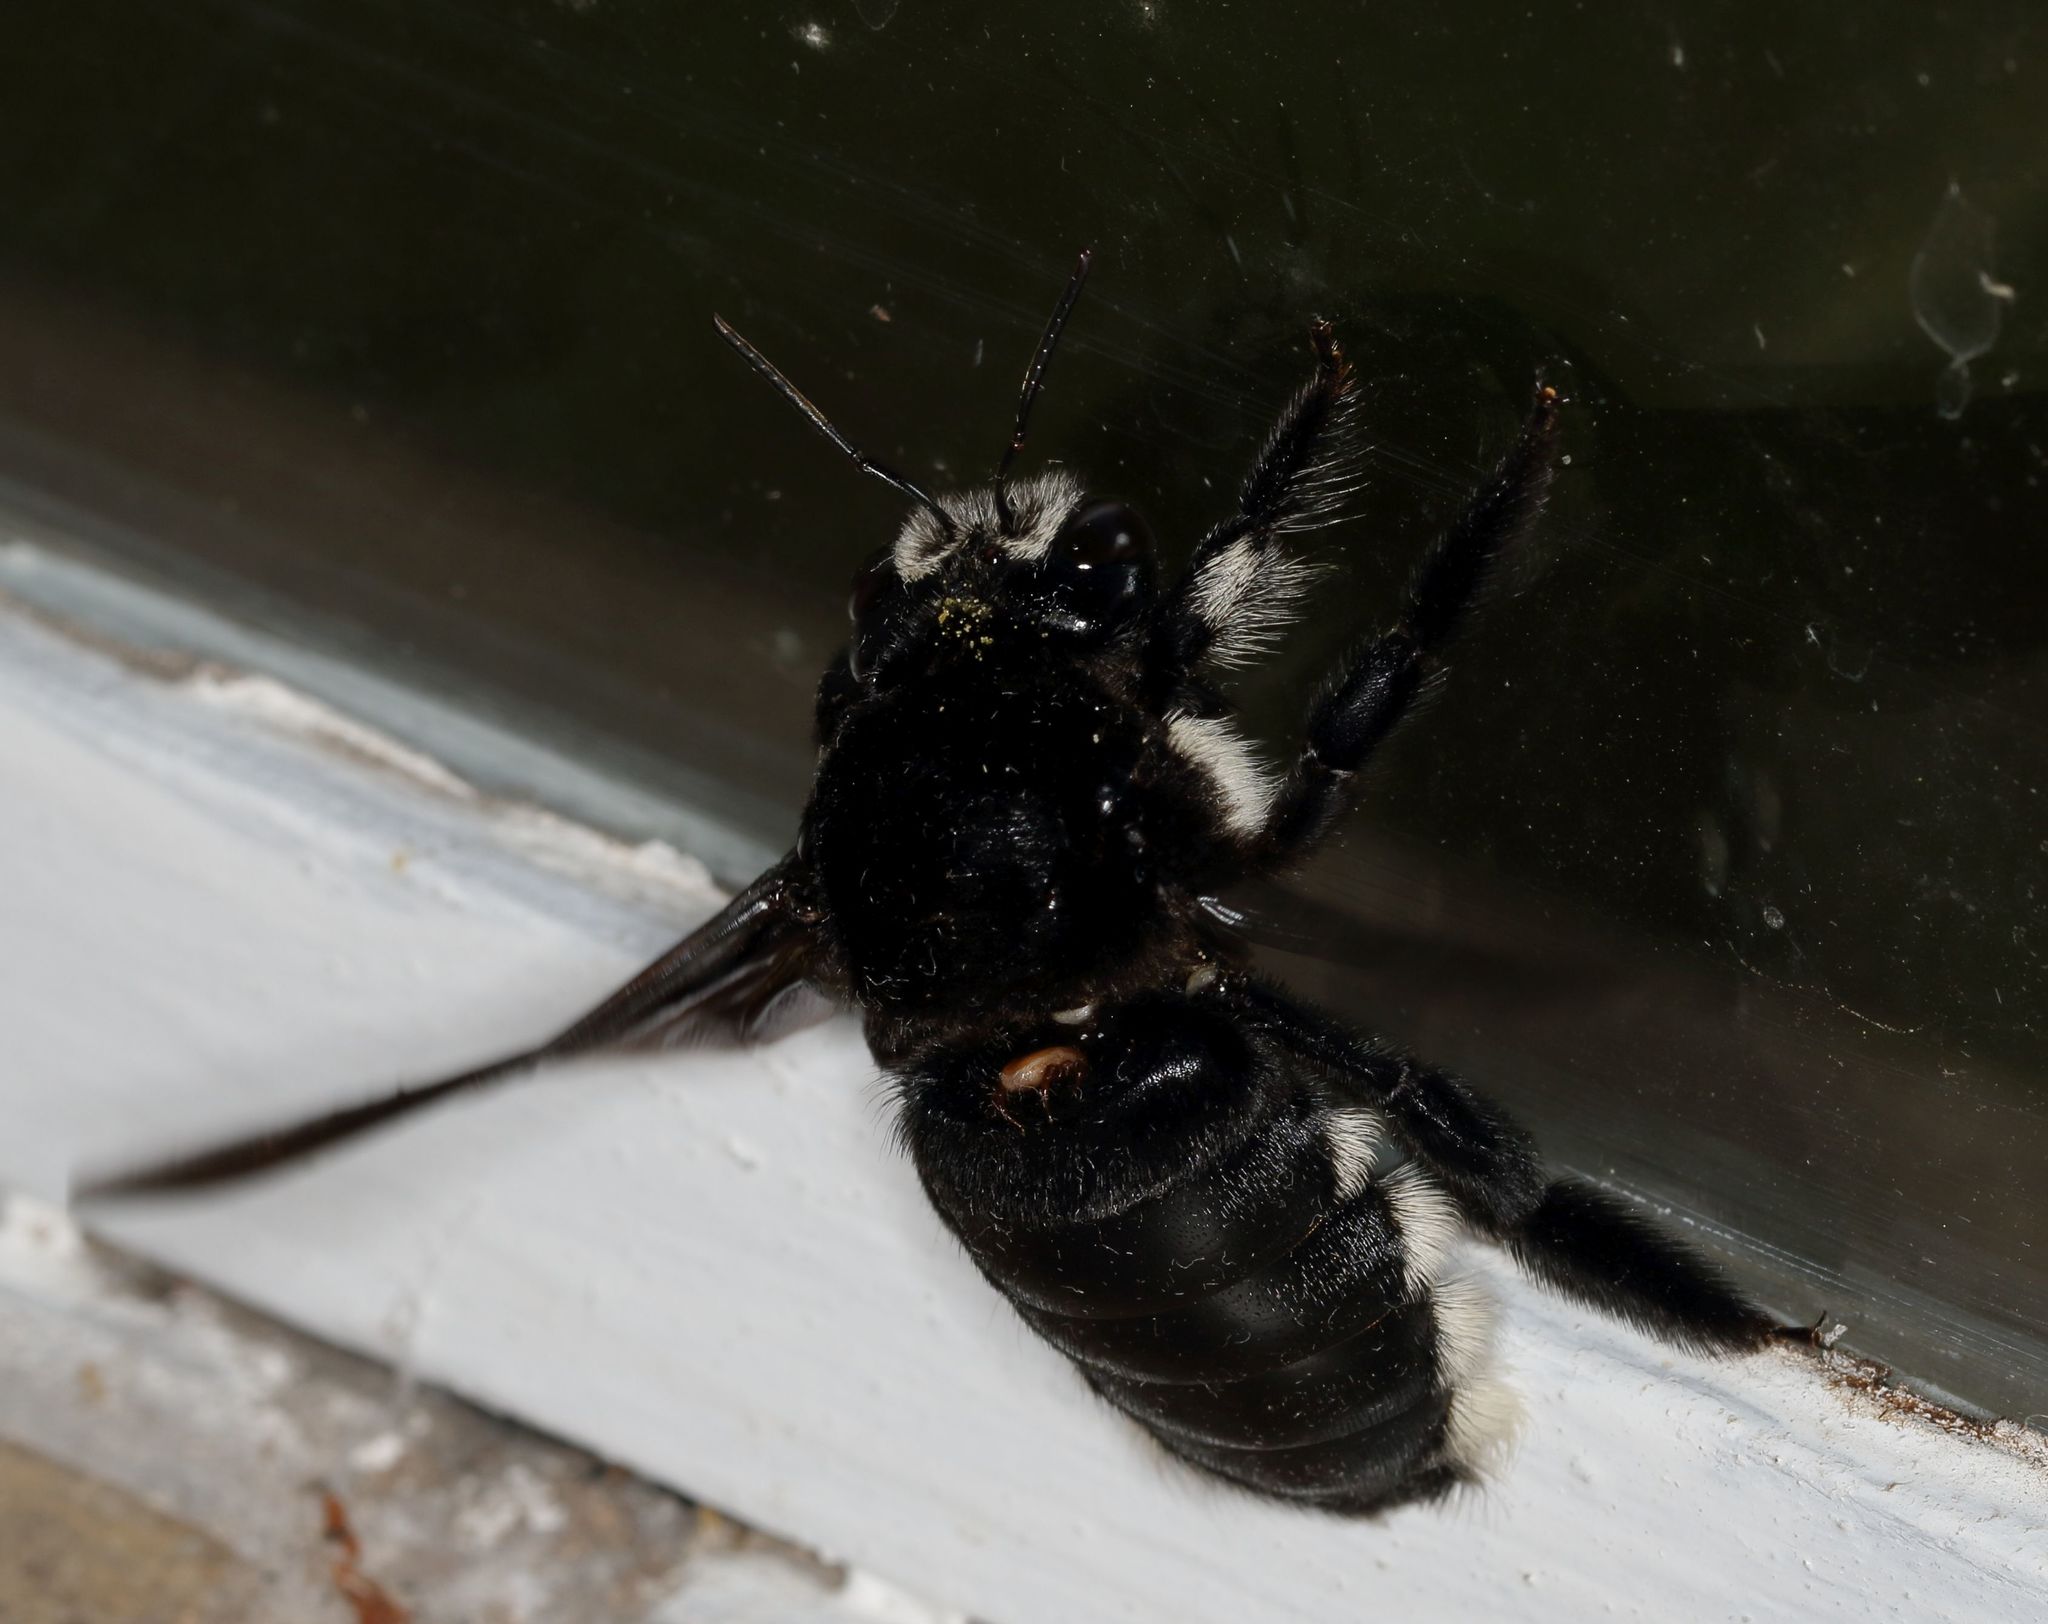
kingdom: Animalia
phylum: Arthropoda
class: Insecta
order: Hymenoptera
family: Apidae
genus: Xylocopa
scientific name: Xylocopa nigrita
